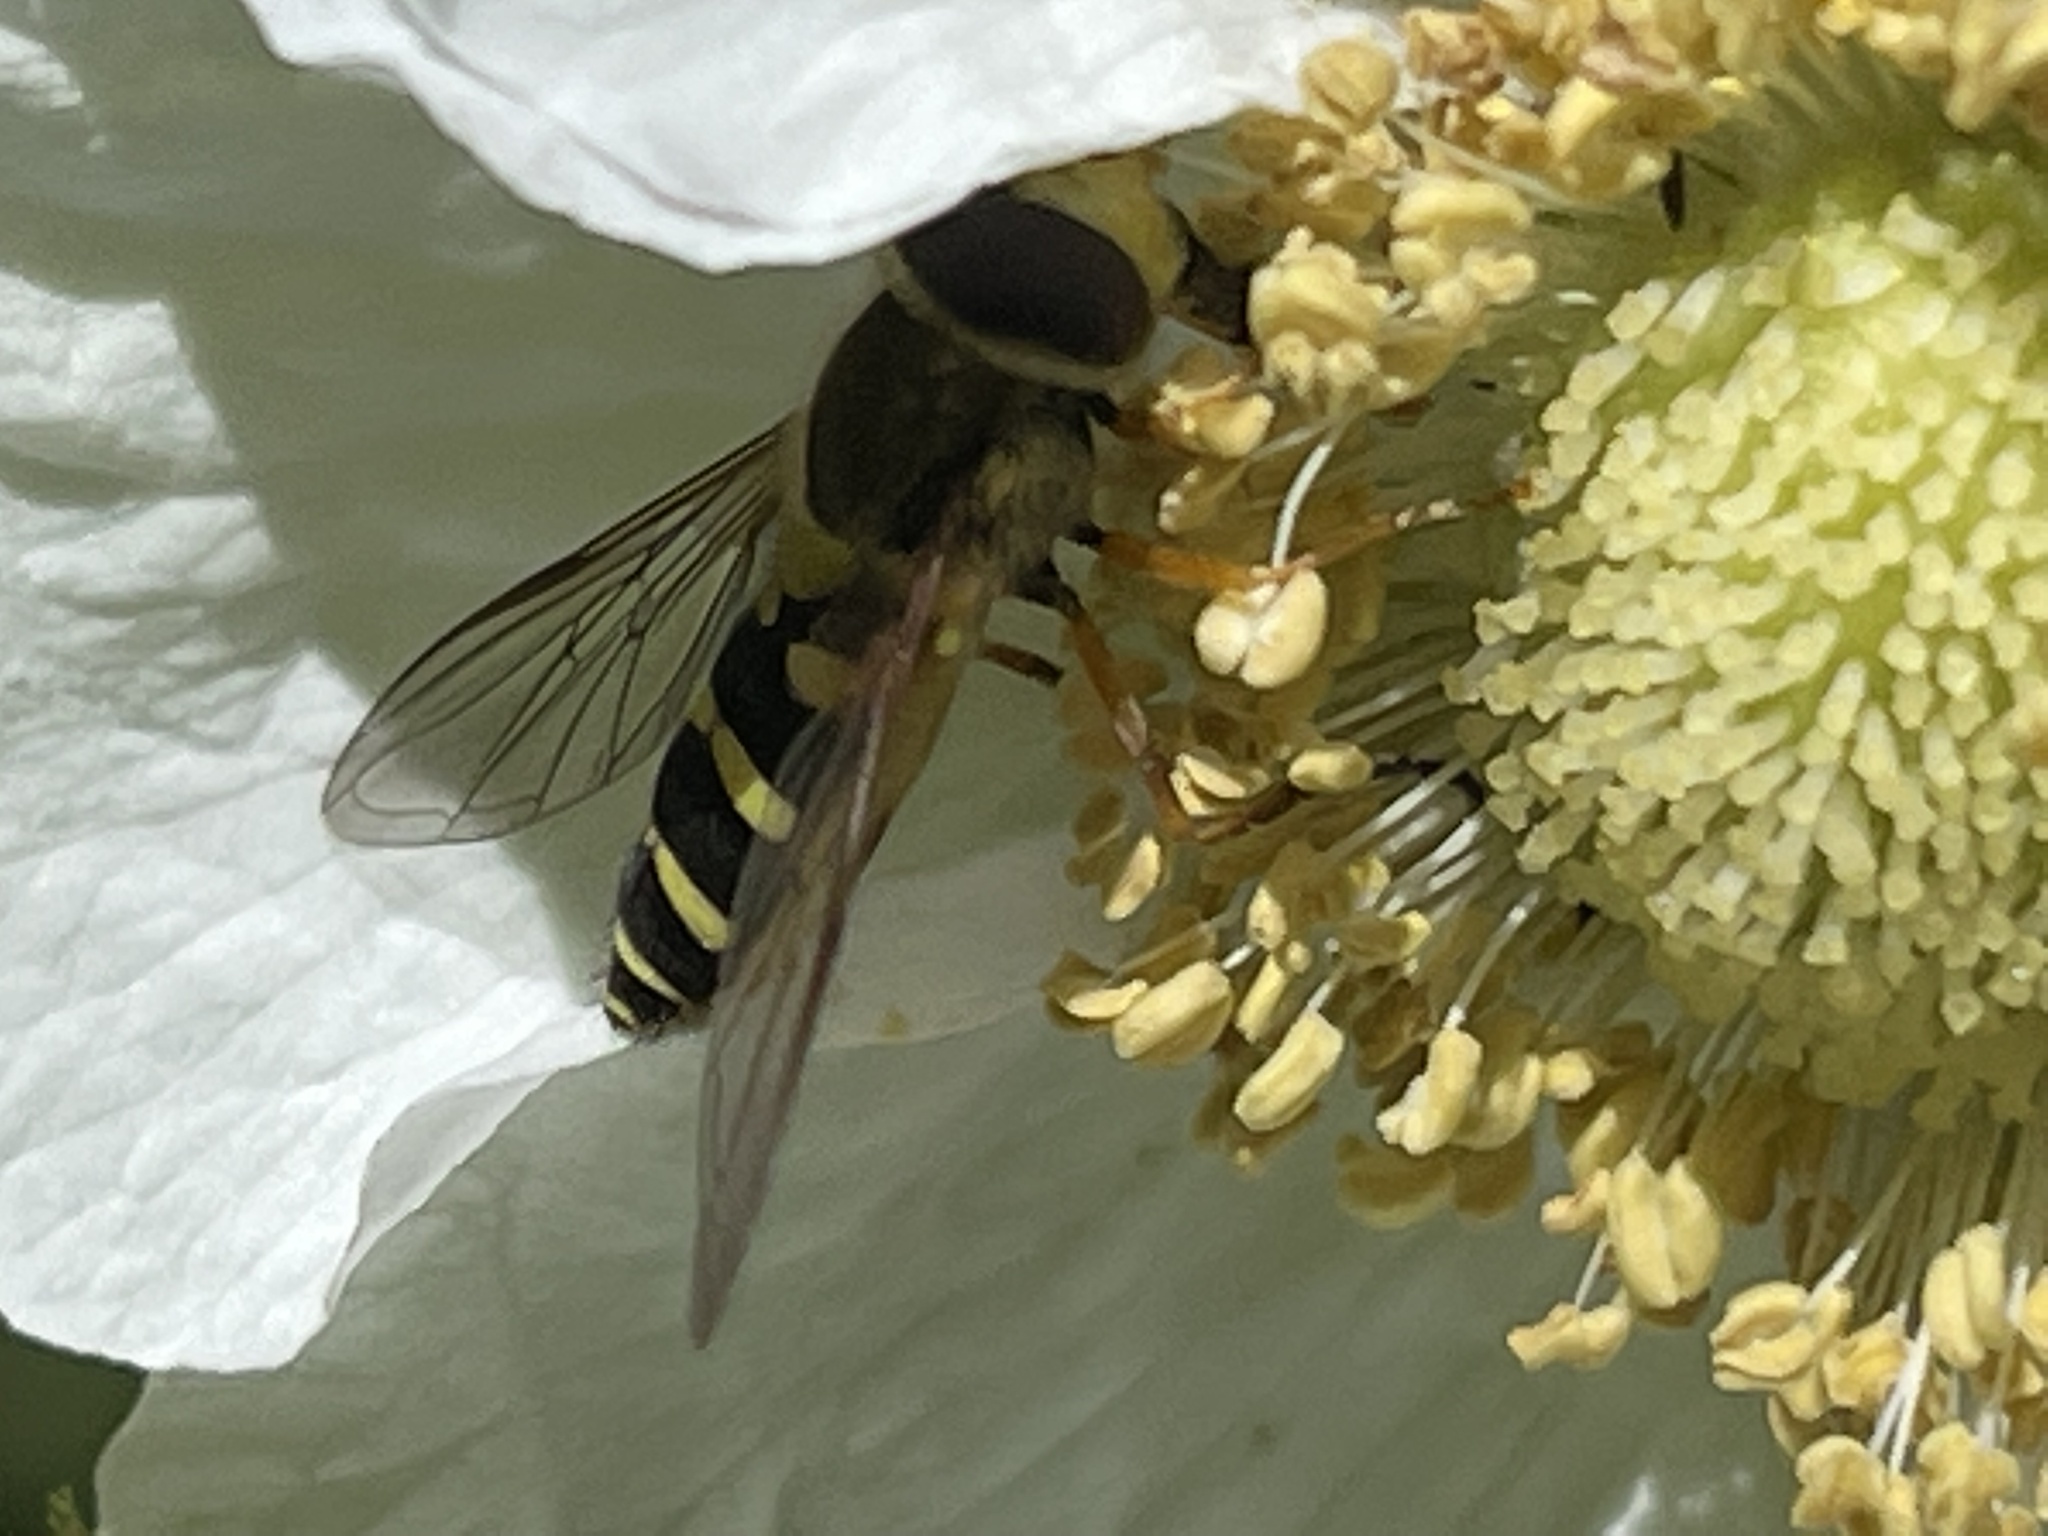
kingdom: Animalia
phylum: Arthropoda
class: Insecta
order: Diptera
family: Syrphidae
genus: Syrphus
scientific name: Syrphus opinator
